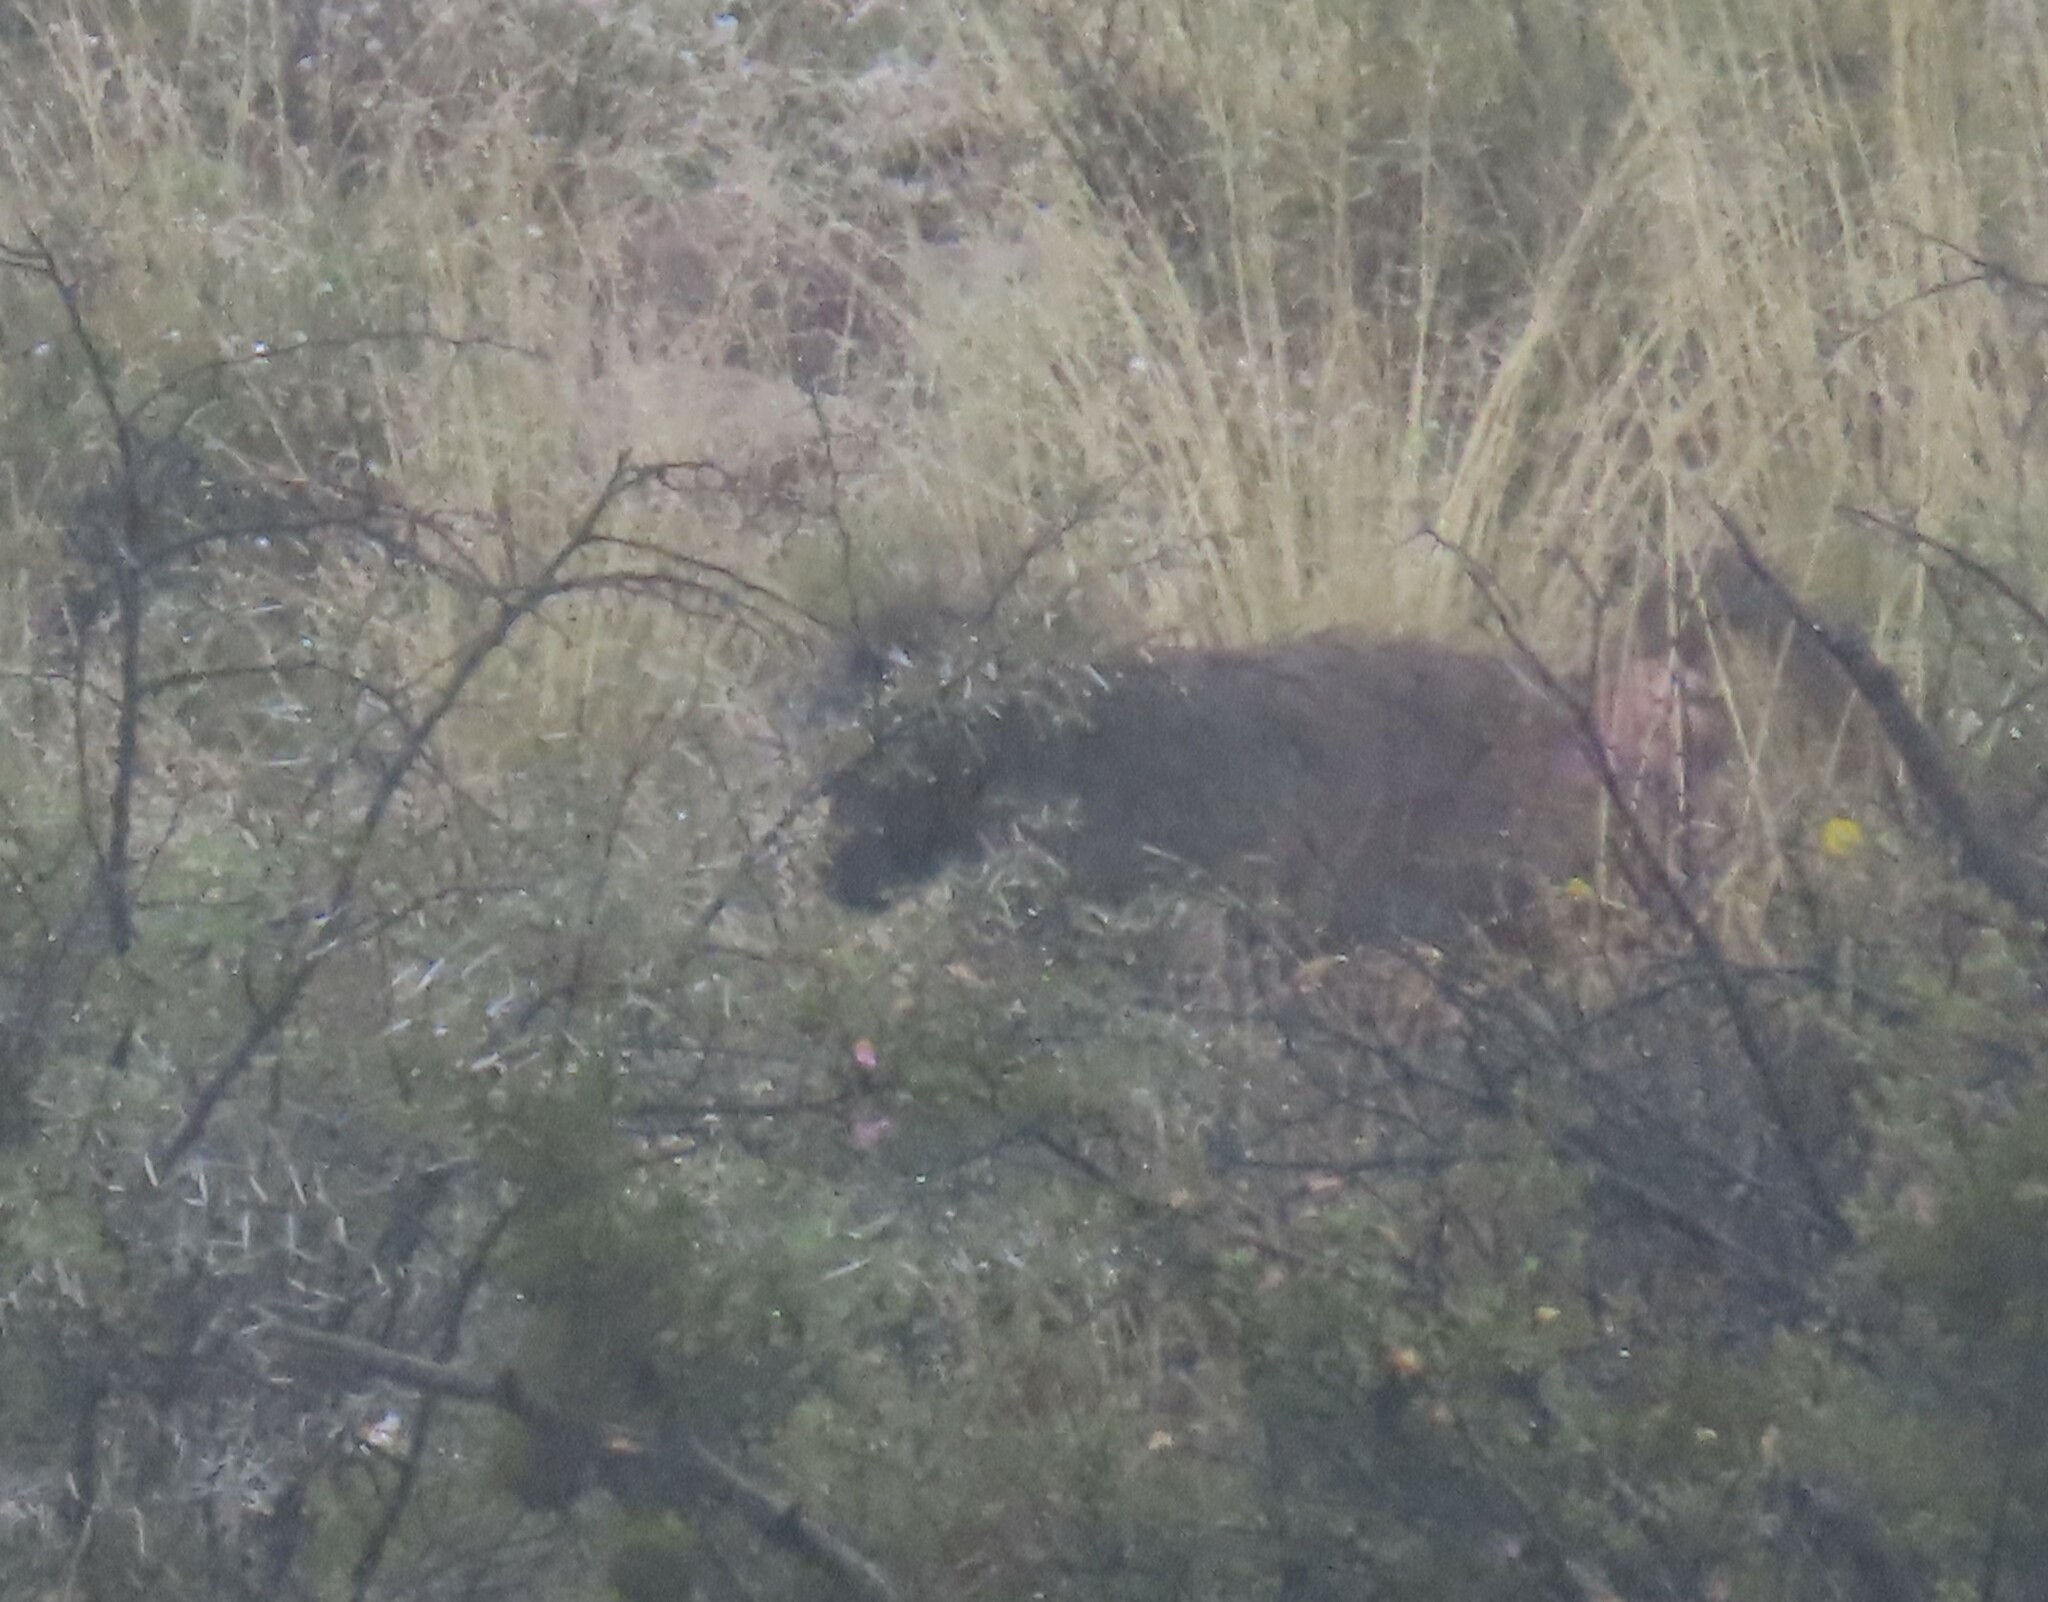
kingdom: Animalia
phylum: Chordata
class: Mammalia
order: Primates
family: Cercopithecidae
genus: Papio
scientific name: Papio ursinus
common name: Chacma baboon
